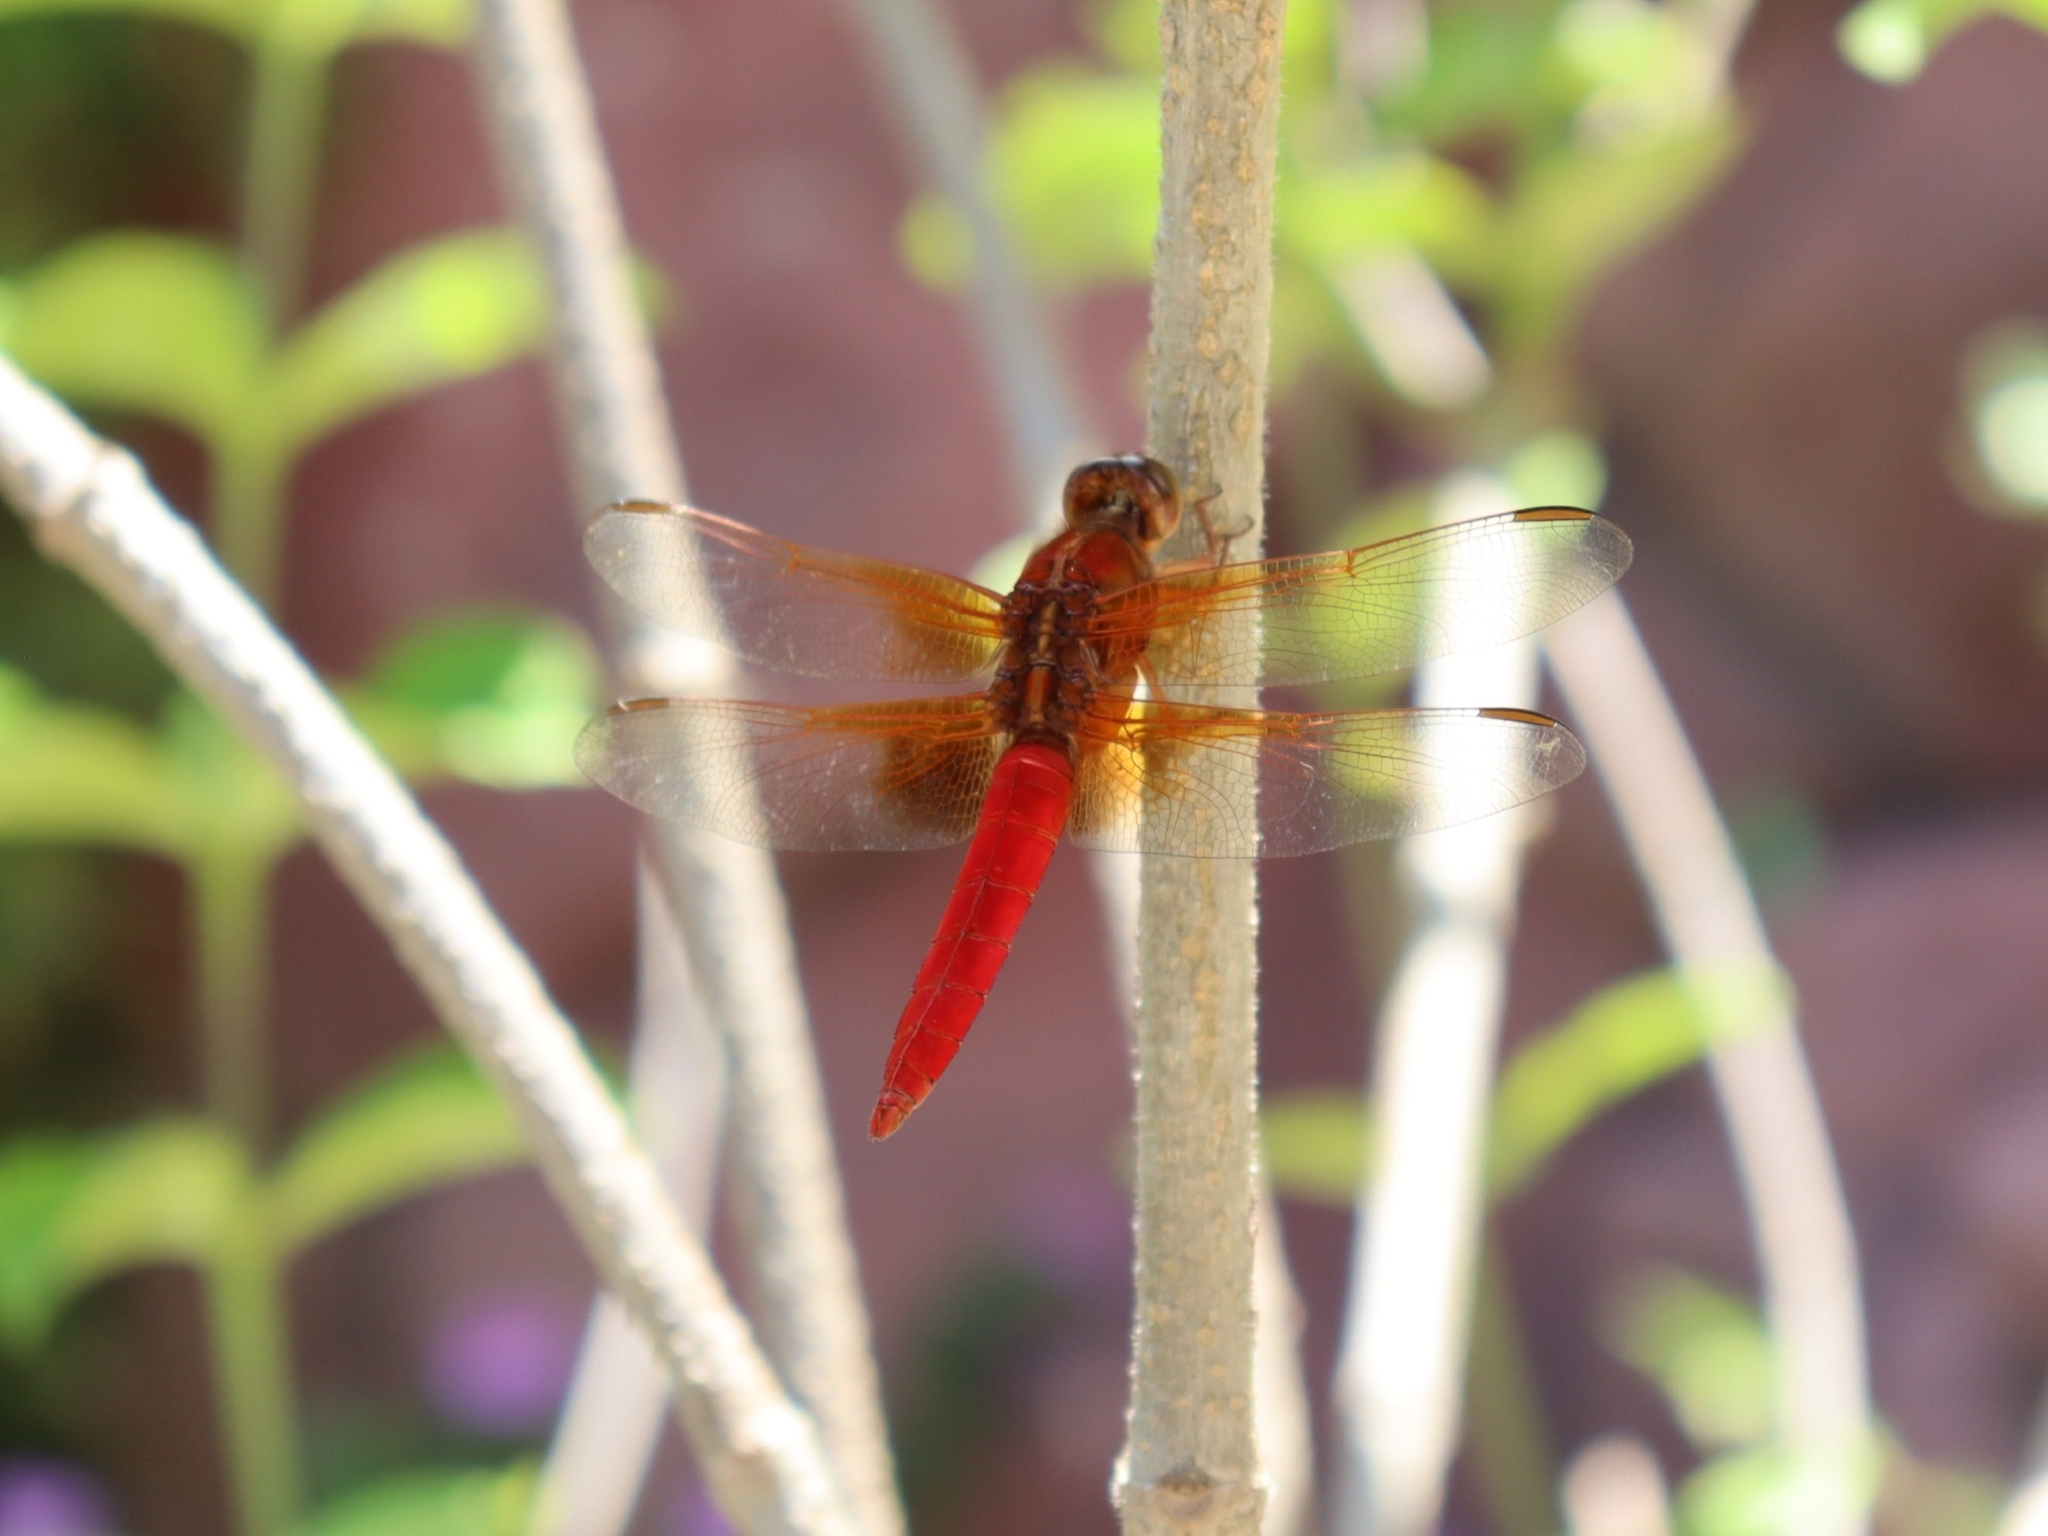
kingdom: Animalia
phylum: Arthropoda
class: Insecta
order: Odonata
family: Libellulidae
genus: Libellula
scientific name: Libellula croceipennis
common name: Neon skimmer
